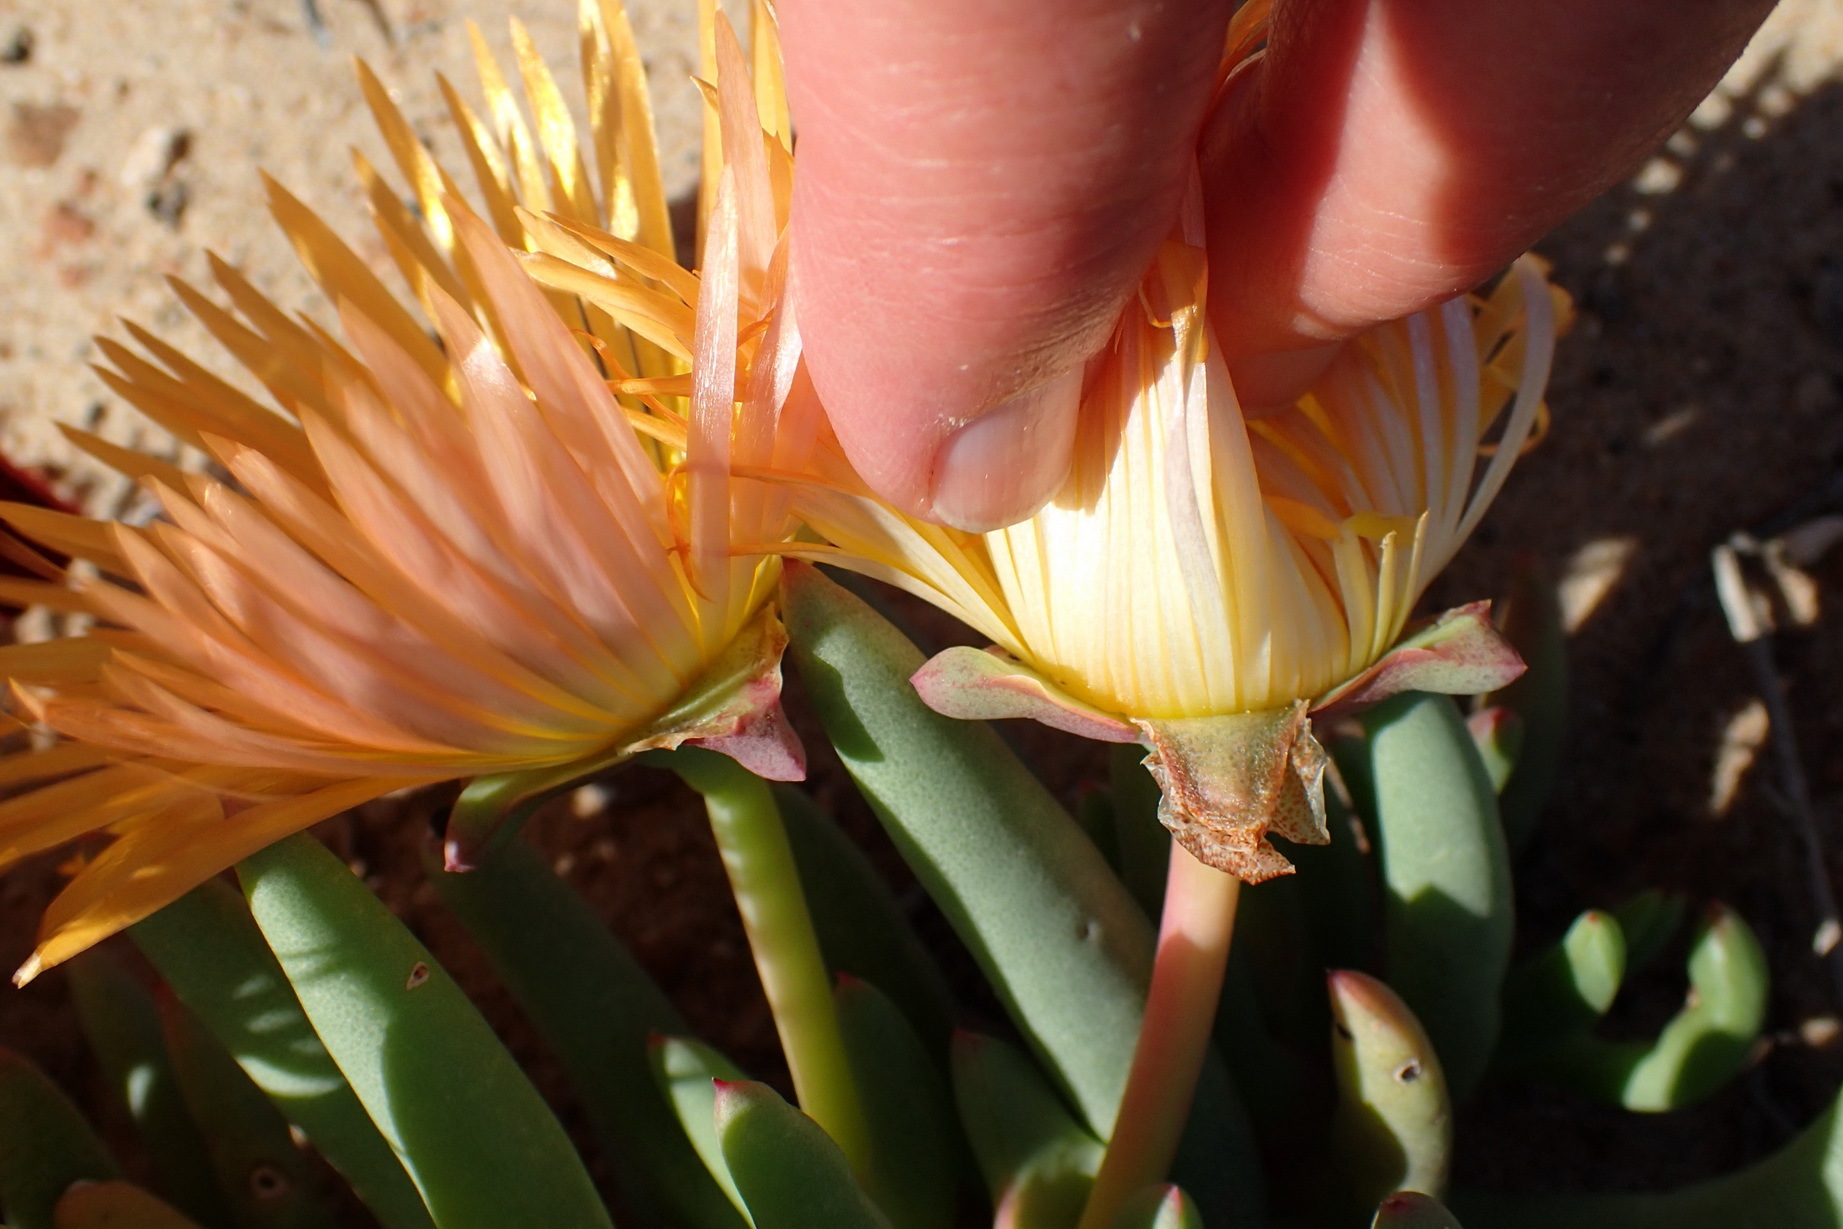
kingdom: Plantae
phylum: Tracheophyta
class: Magnoliopsida
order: Caryophyllales
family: Aizoaceae
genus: Jordaaniella
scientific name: Jordaaniella spongiosa
